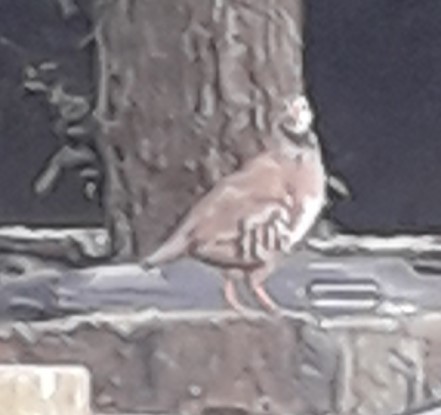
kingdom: Animalia
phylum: Chordata
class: Aves
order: Galliformes
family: Phasianidae
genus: Alectoris
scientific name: Alectoris rufa
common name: Red-legged partridge
